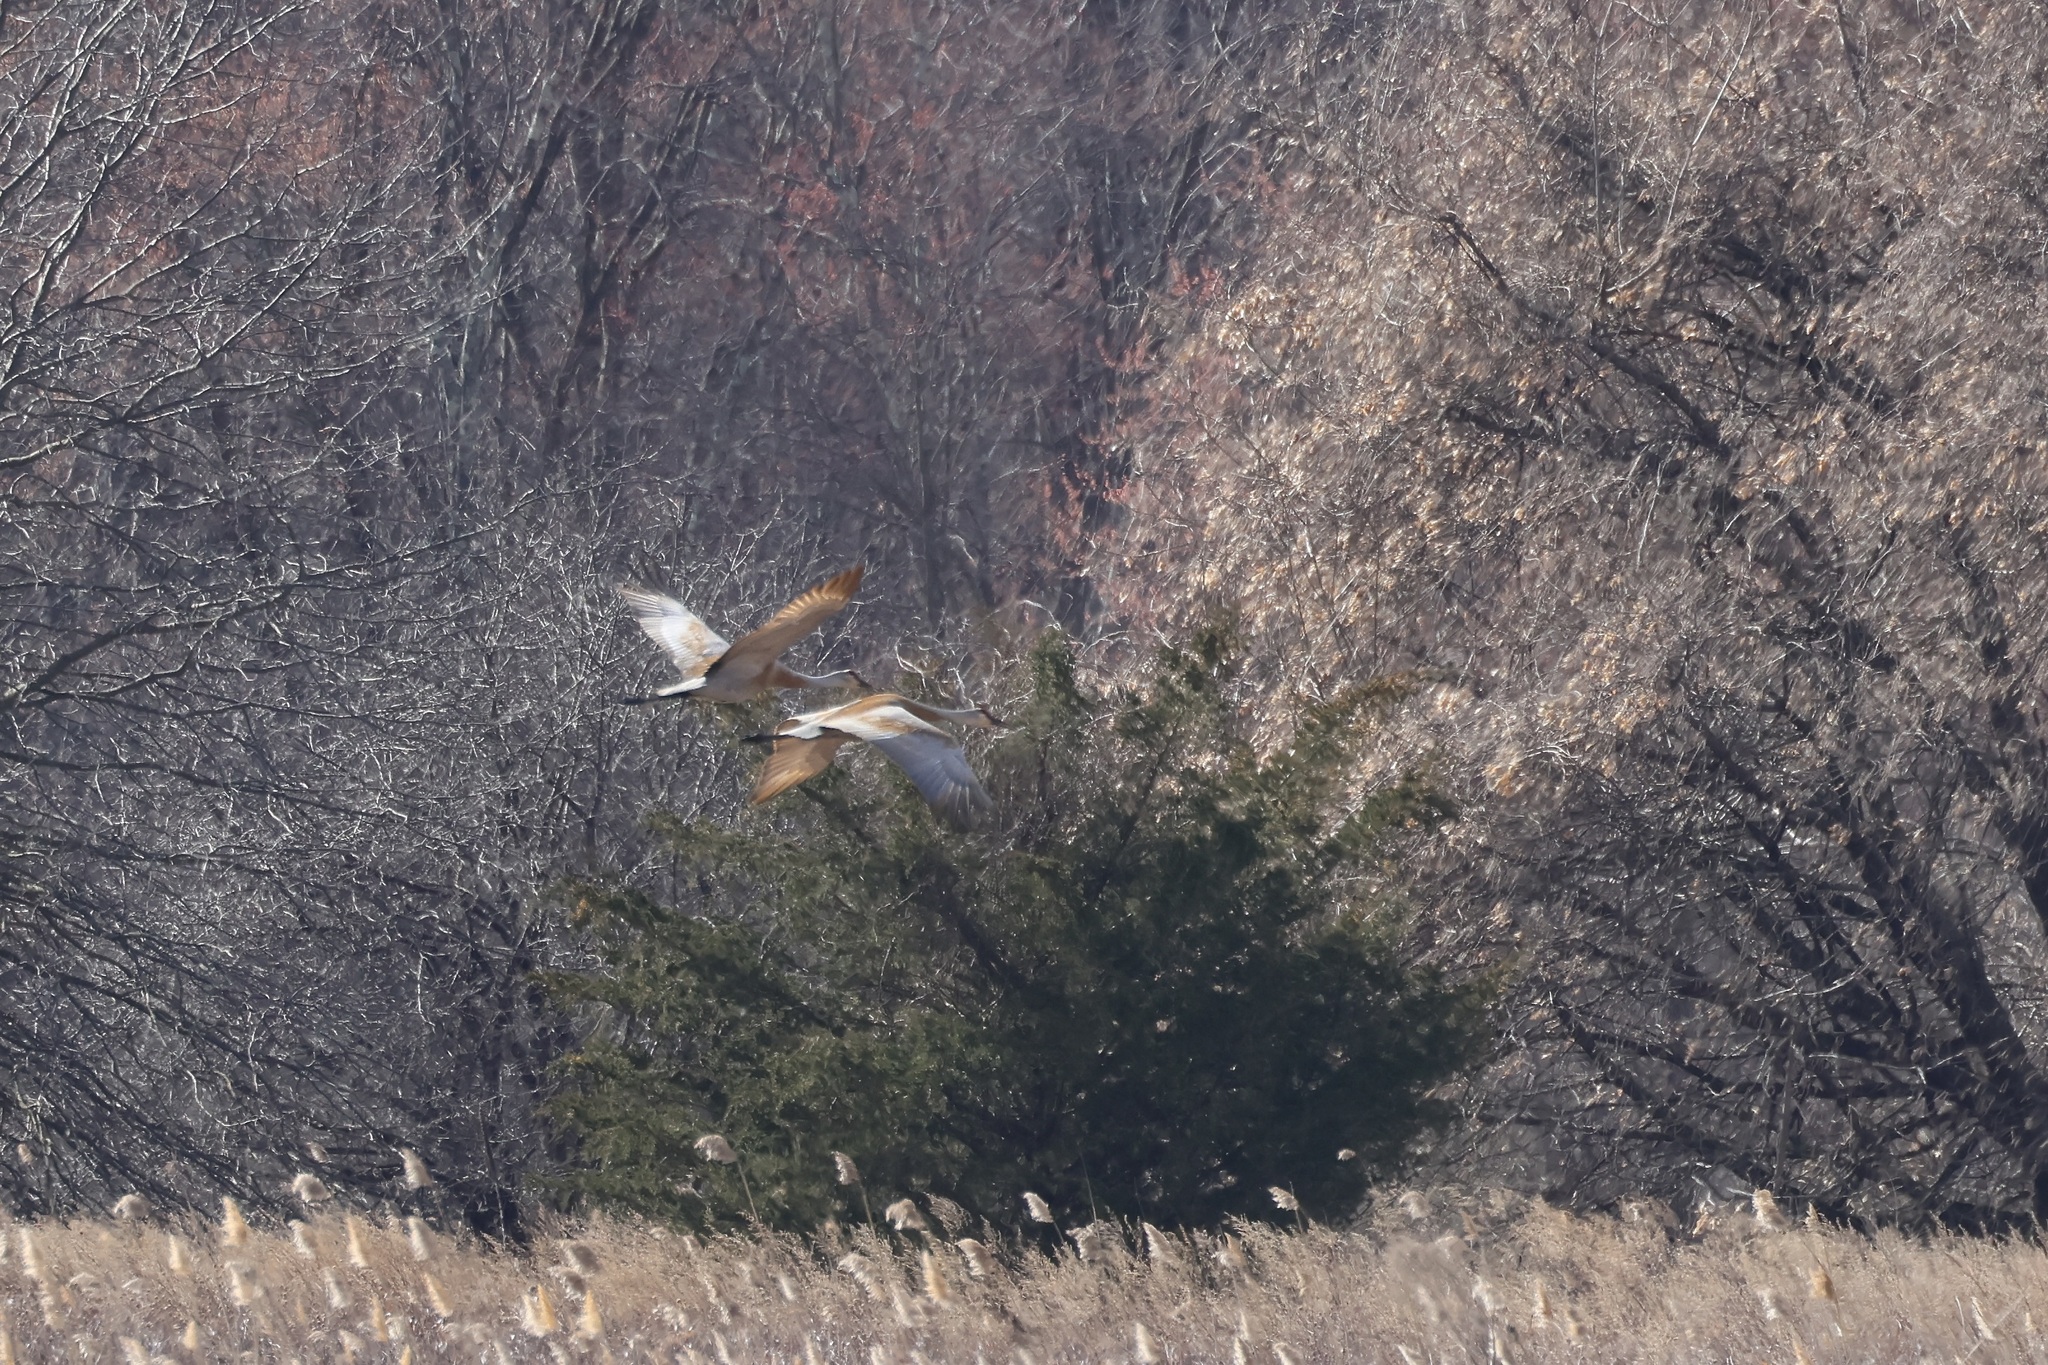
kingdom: Animalia
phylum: Chordata
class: Aves
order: Gruiformes
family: Gruidae
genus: Grus
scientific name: Grus canadensis
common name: Sandhill crane
